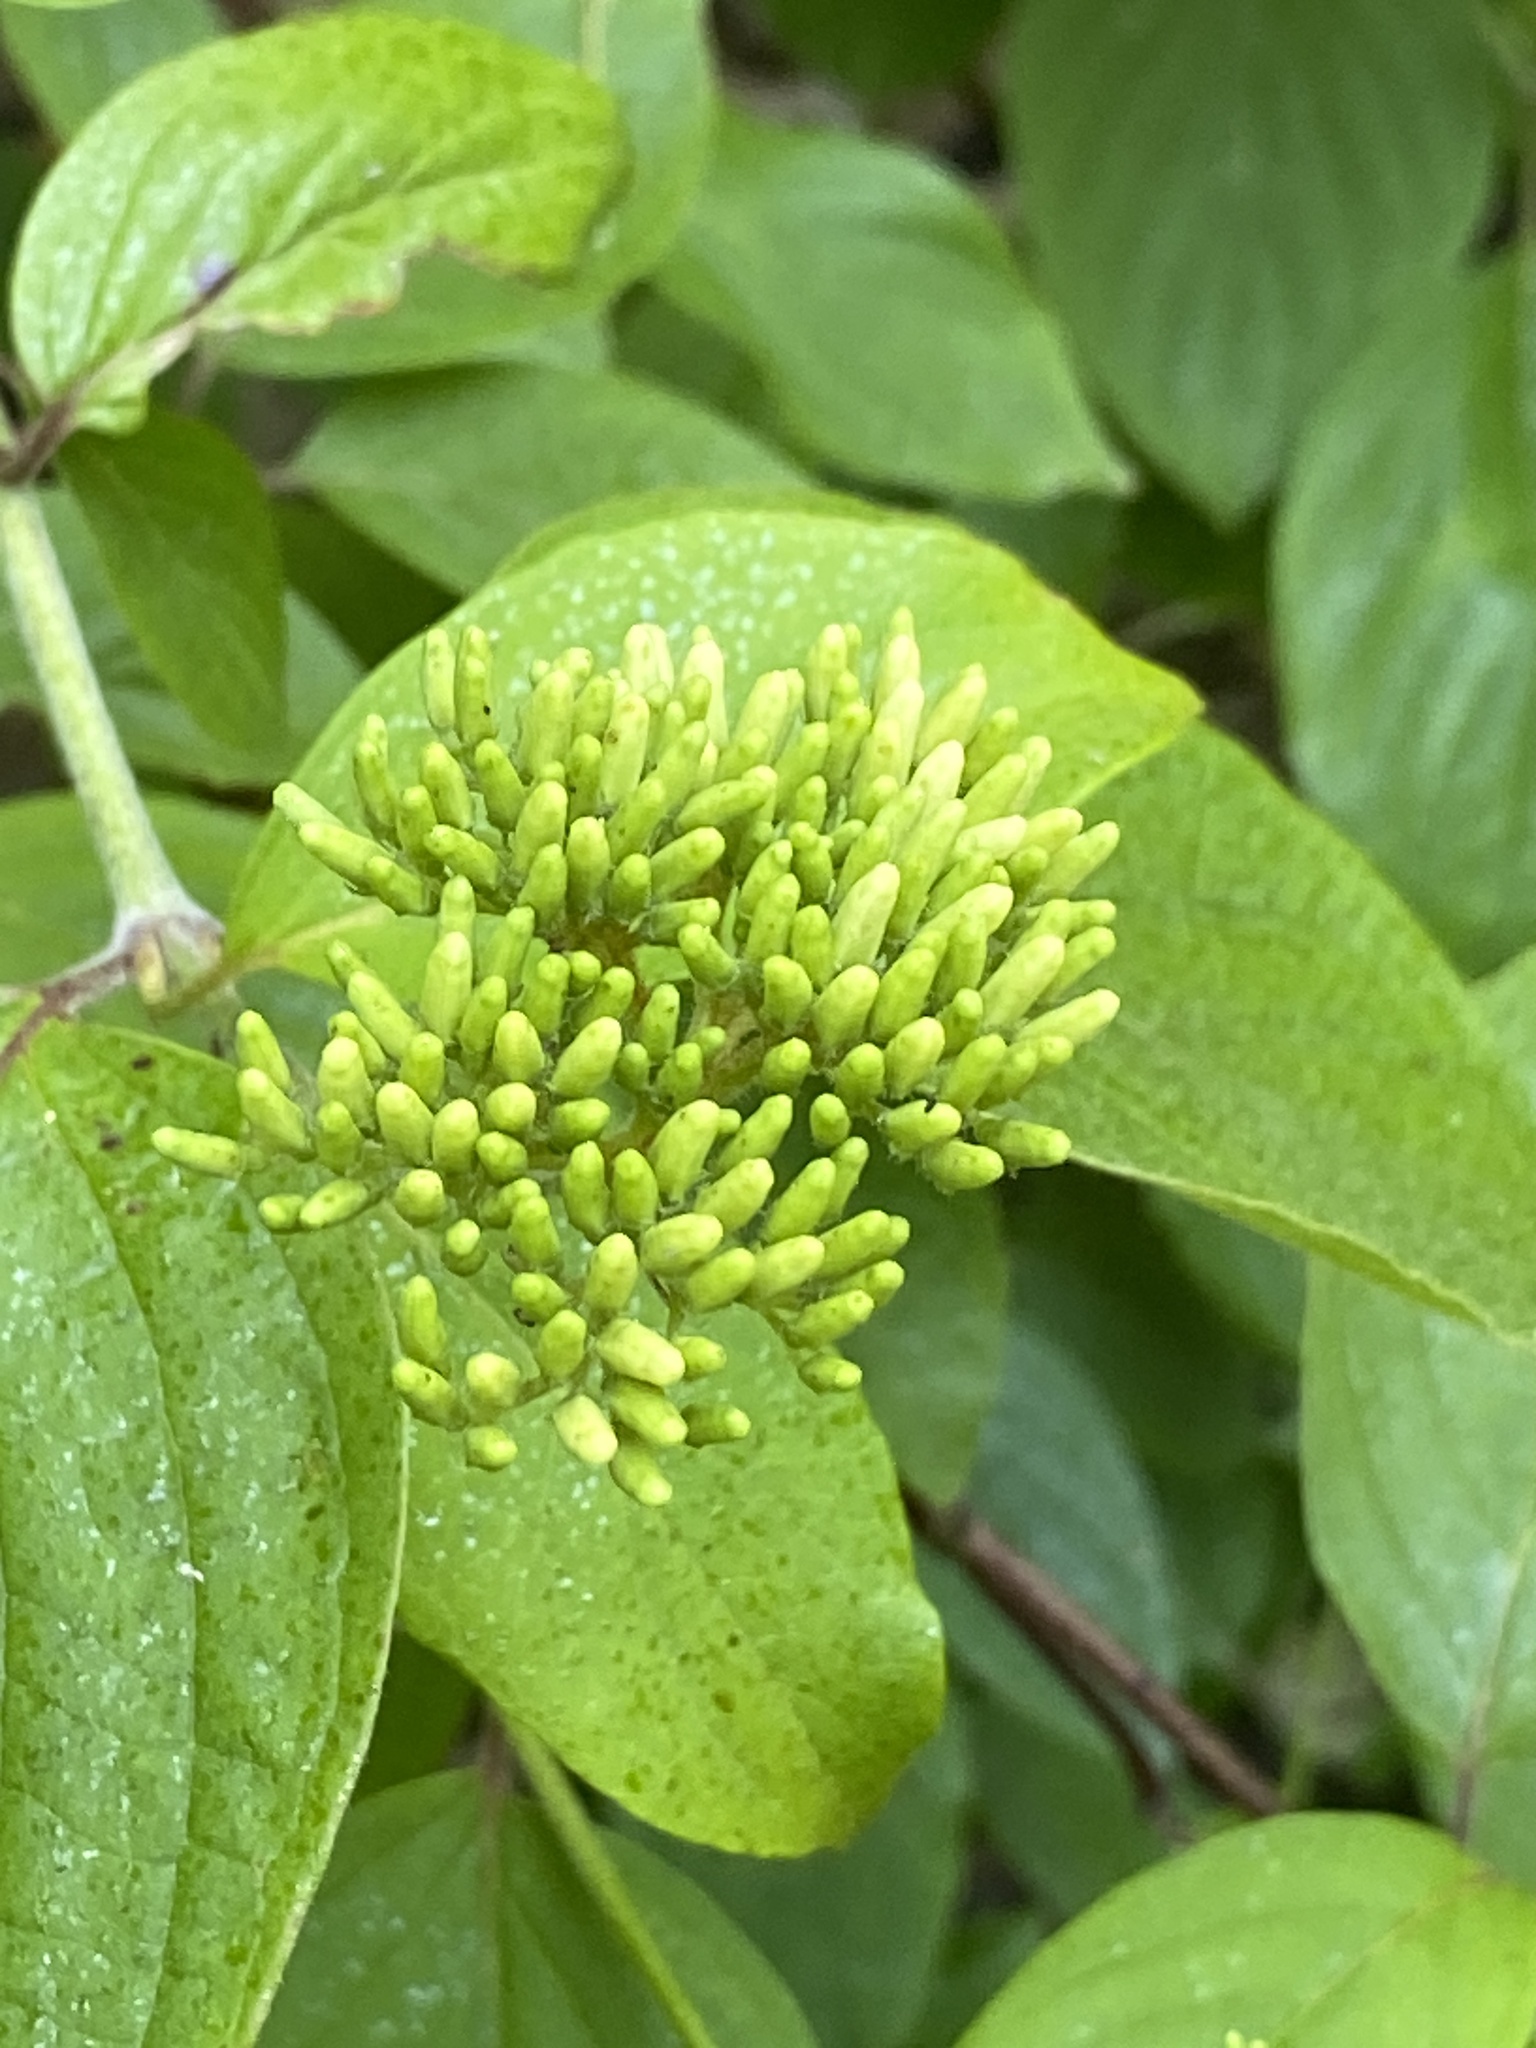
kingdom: Plantae
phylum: Tracheophyta
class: Magnoliopsida
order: Cornales
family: Cornaceae
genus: Cornus
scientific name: Cornus amomum
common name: Silky dogwood
